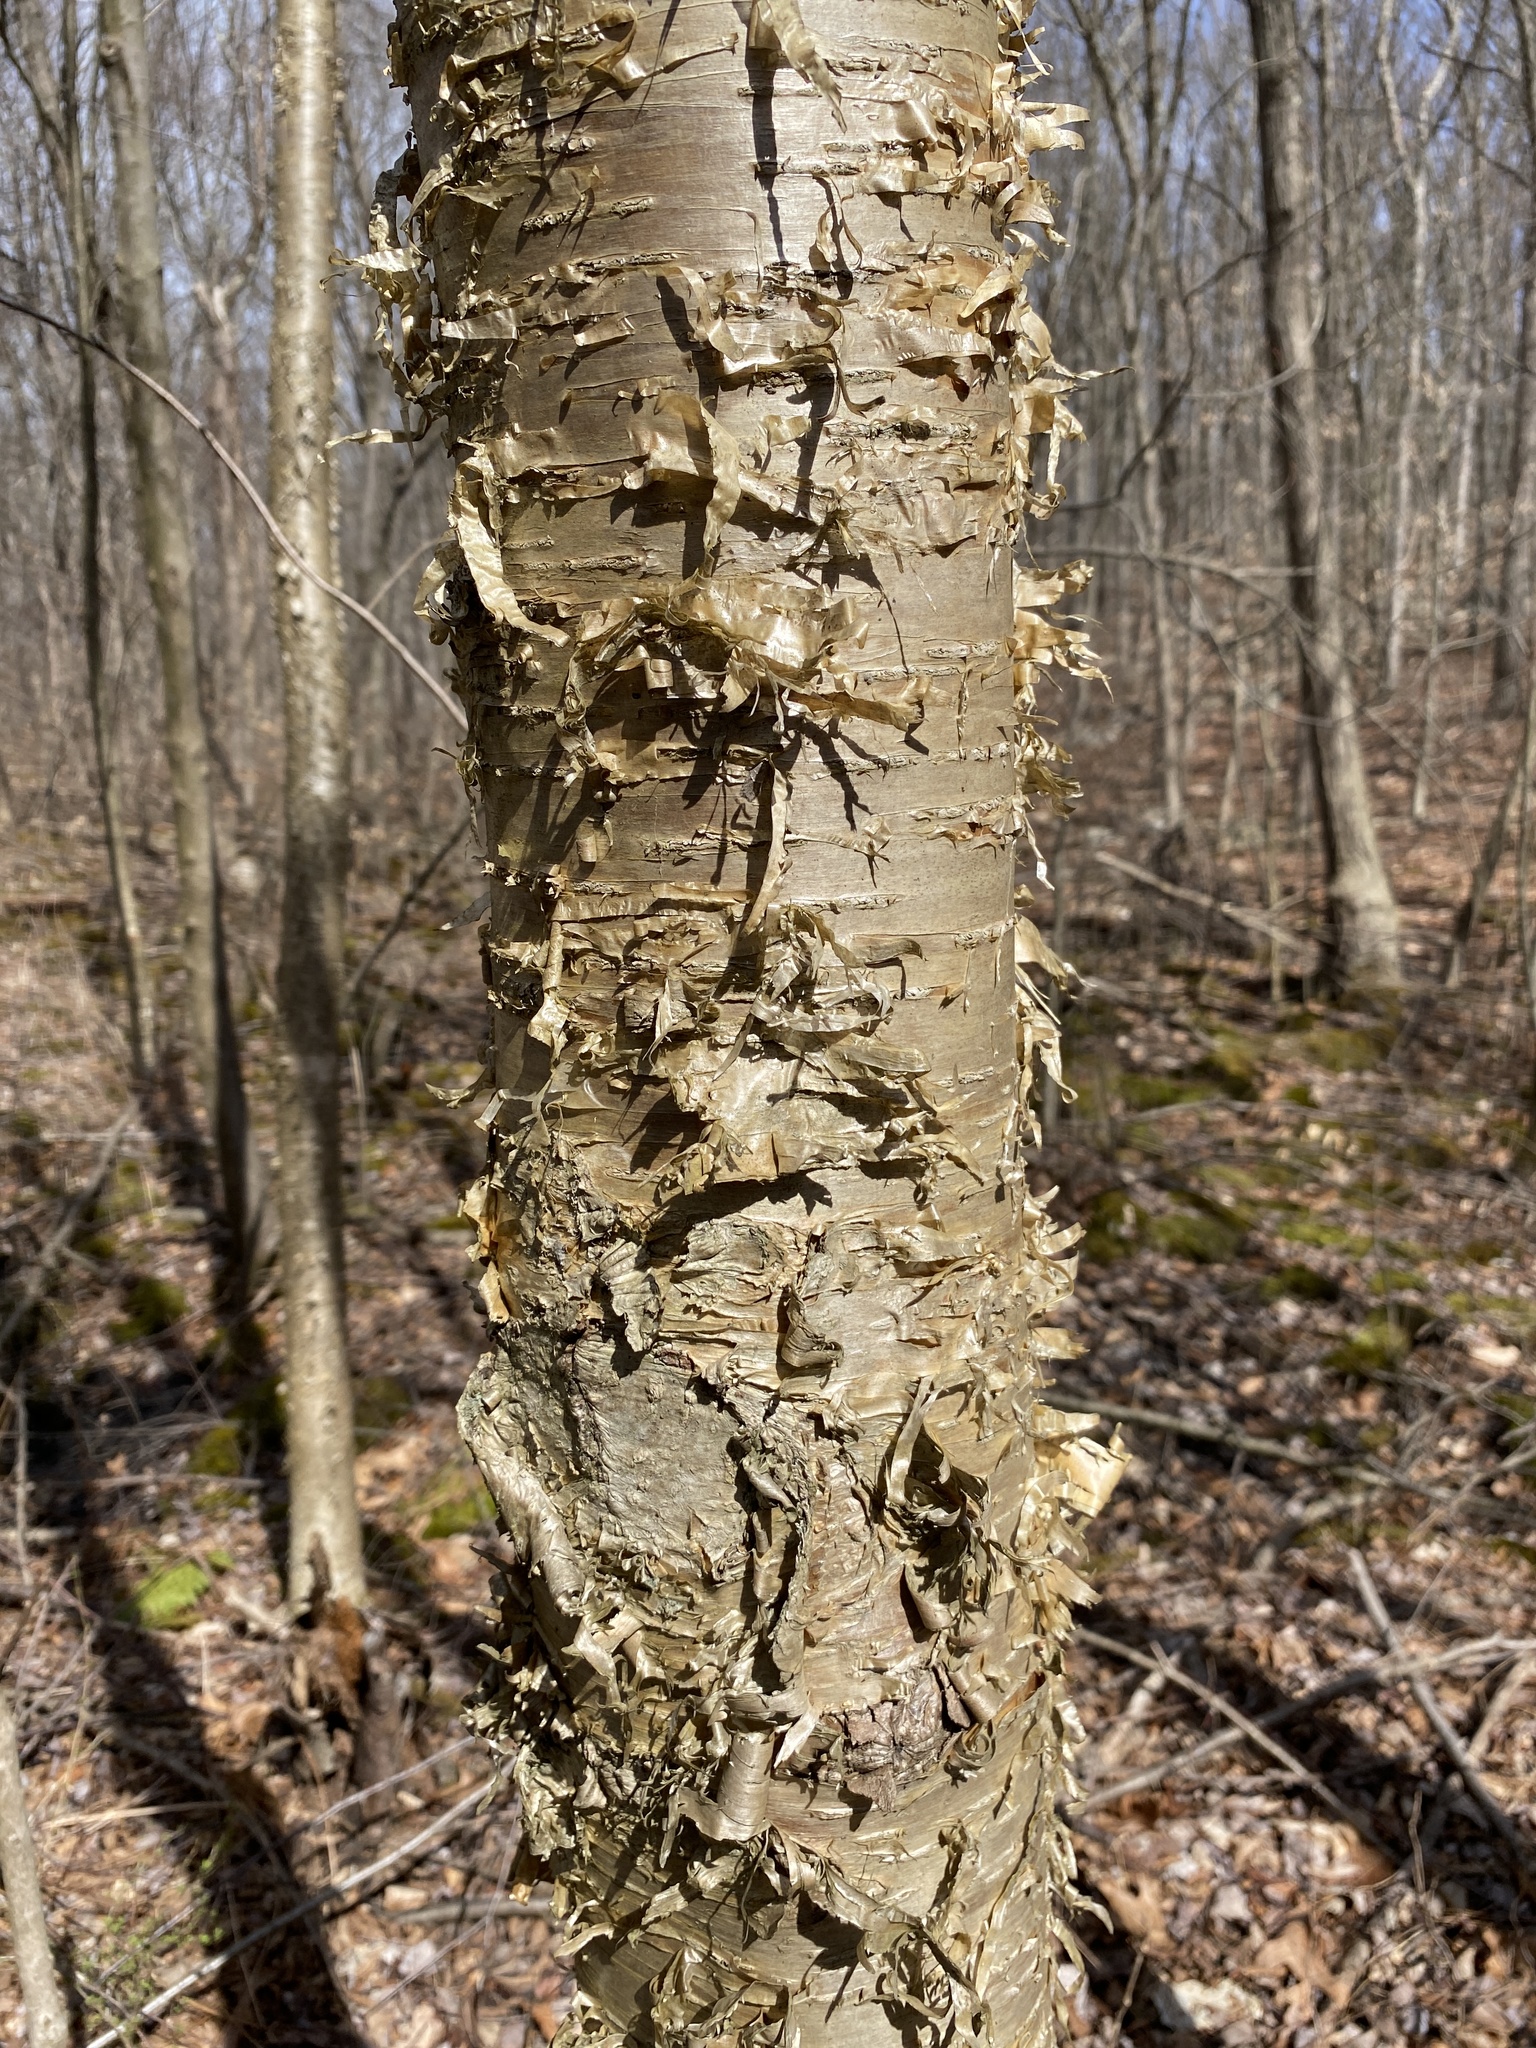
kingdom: Plantae
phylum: Tracheophyta
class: Magnoliopsida
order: Fagales
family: Betulaceae
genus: Betula
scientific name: Betula alleghaniensis
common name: Yellow birch
